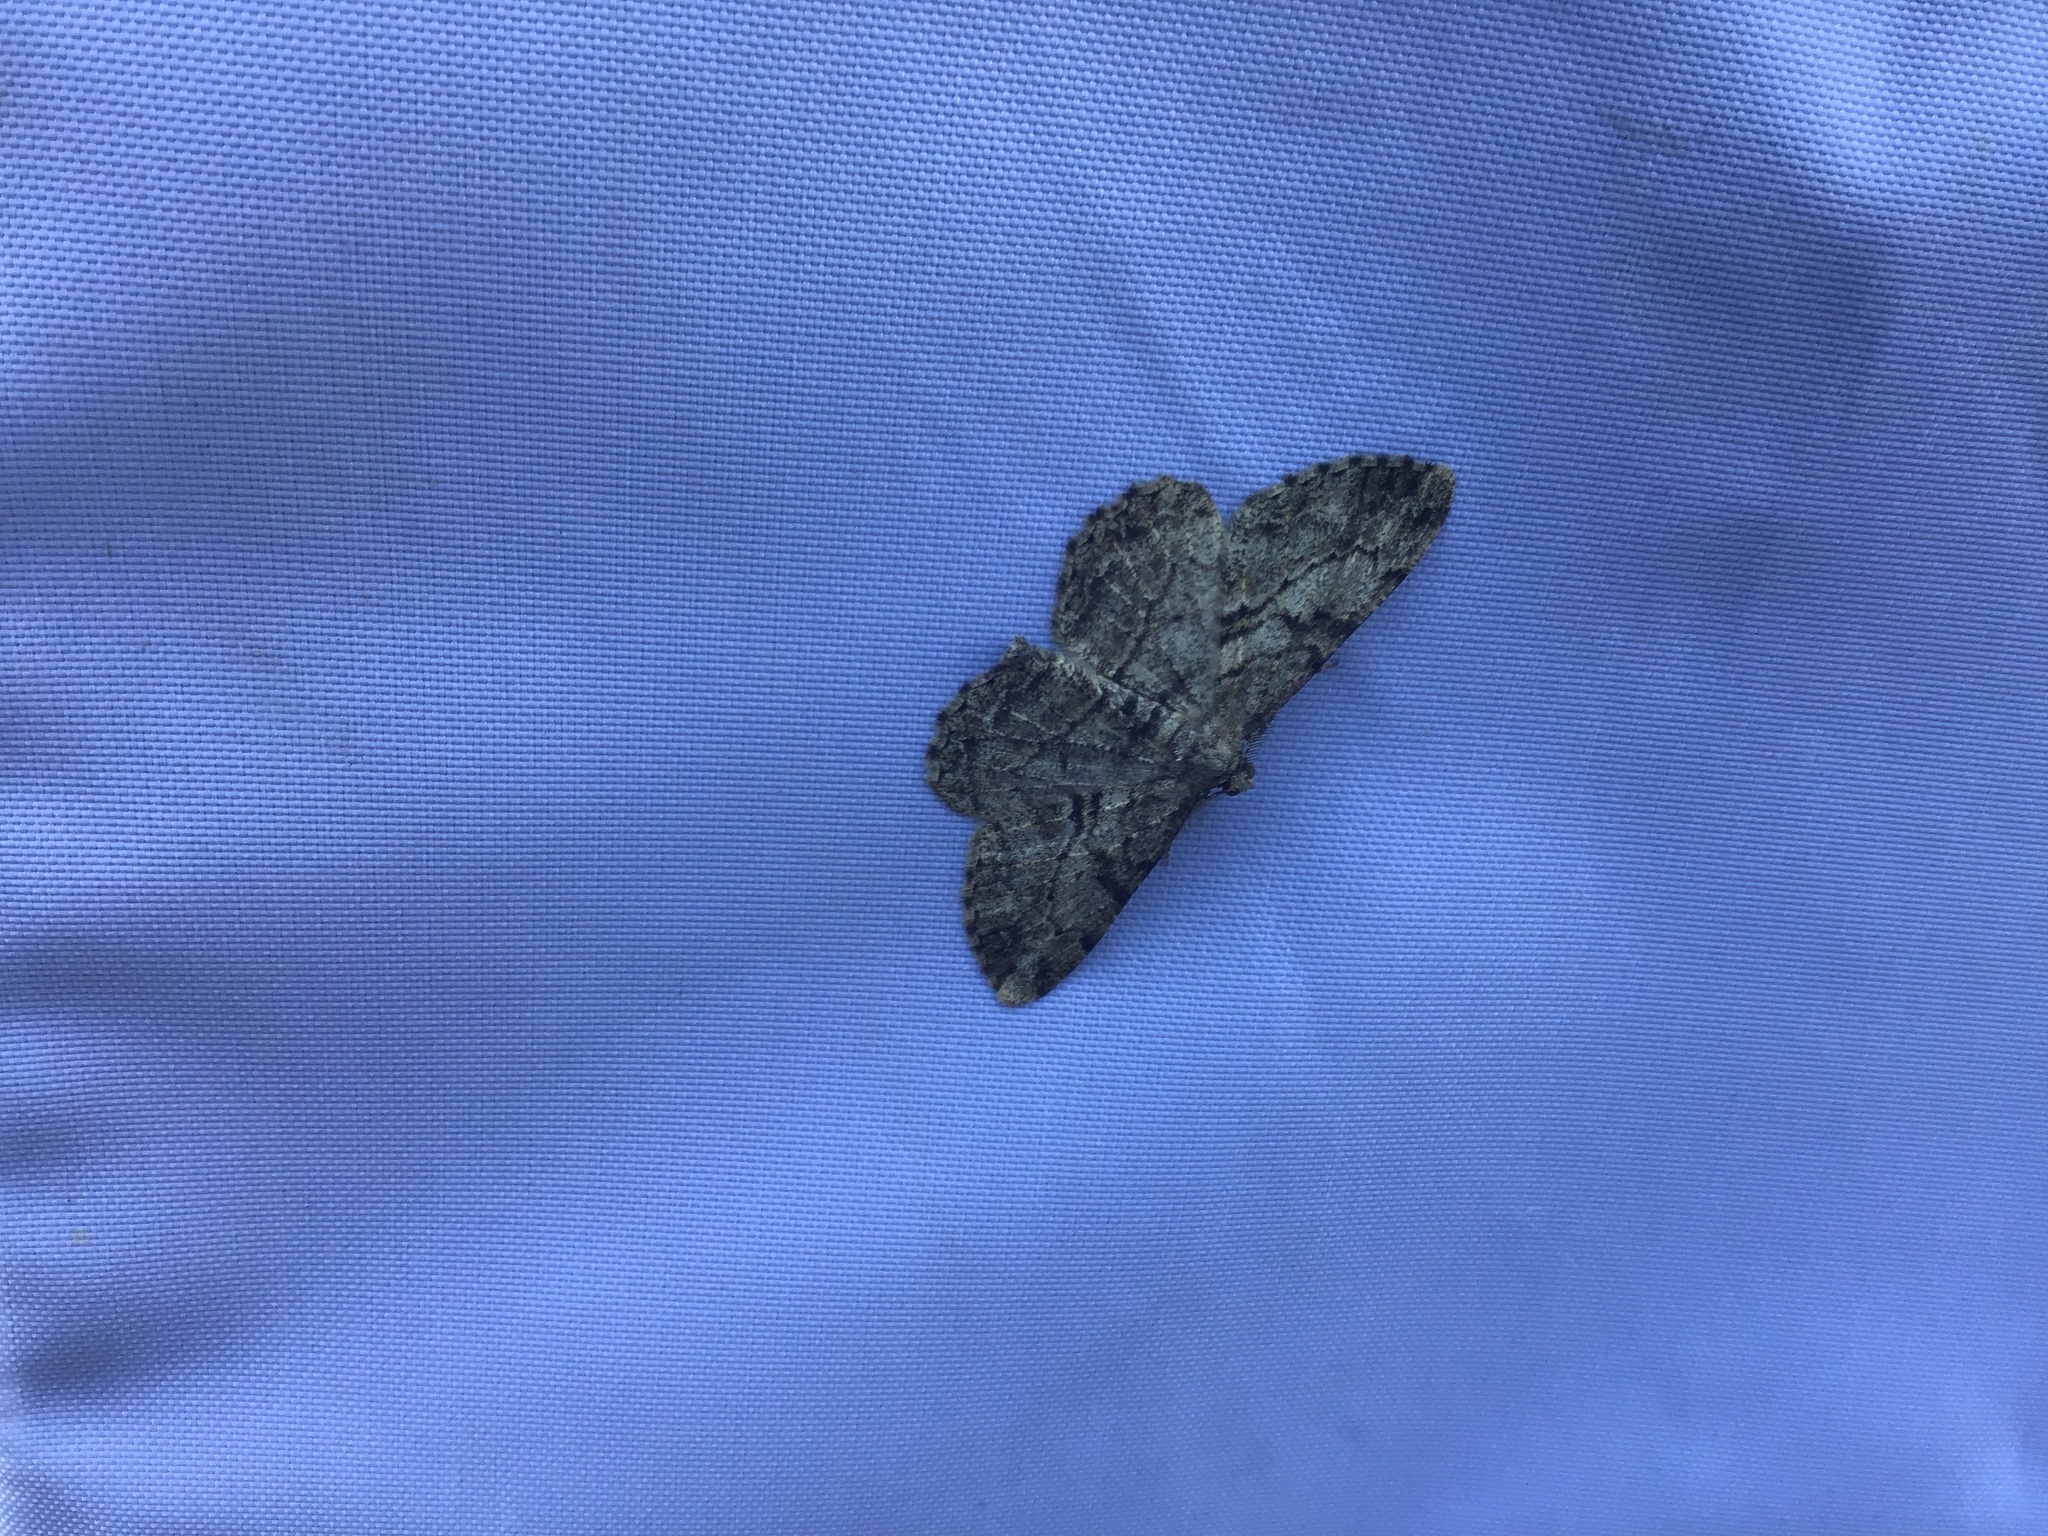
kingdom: Animalia
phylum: Arthropoda
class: Insecta
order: Lepidoptera
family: Geometridae
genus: Peribatodes
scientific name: Peribatodes rhomboidaria
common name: Willow beauty
